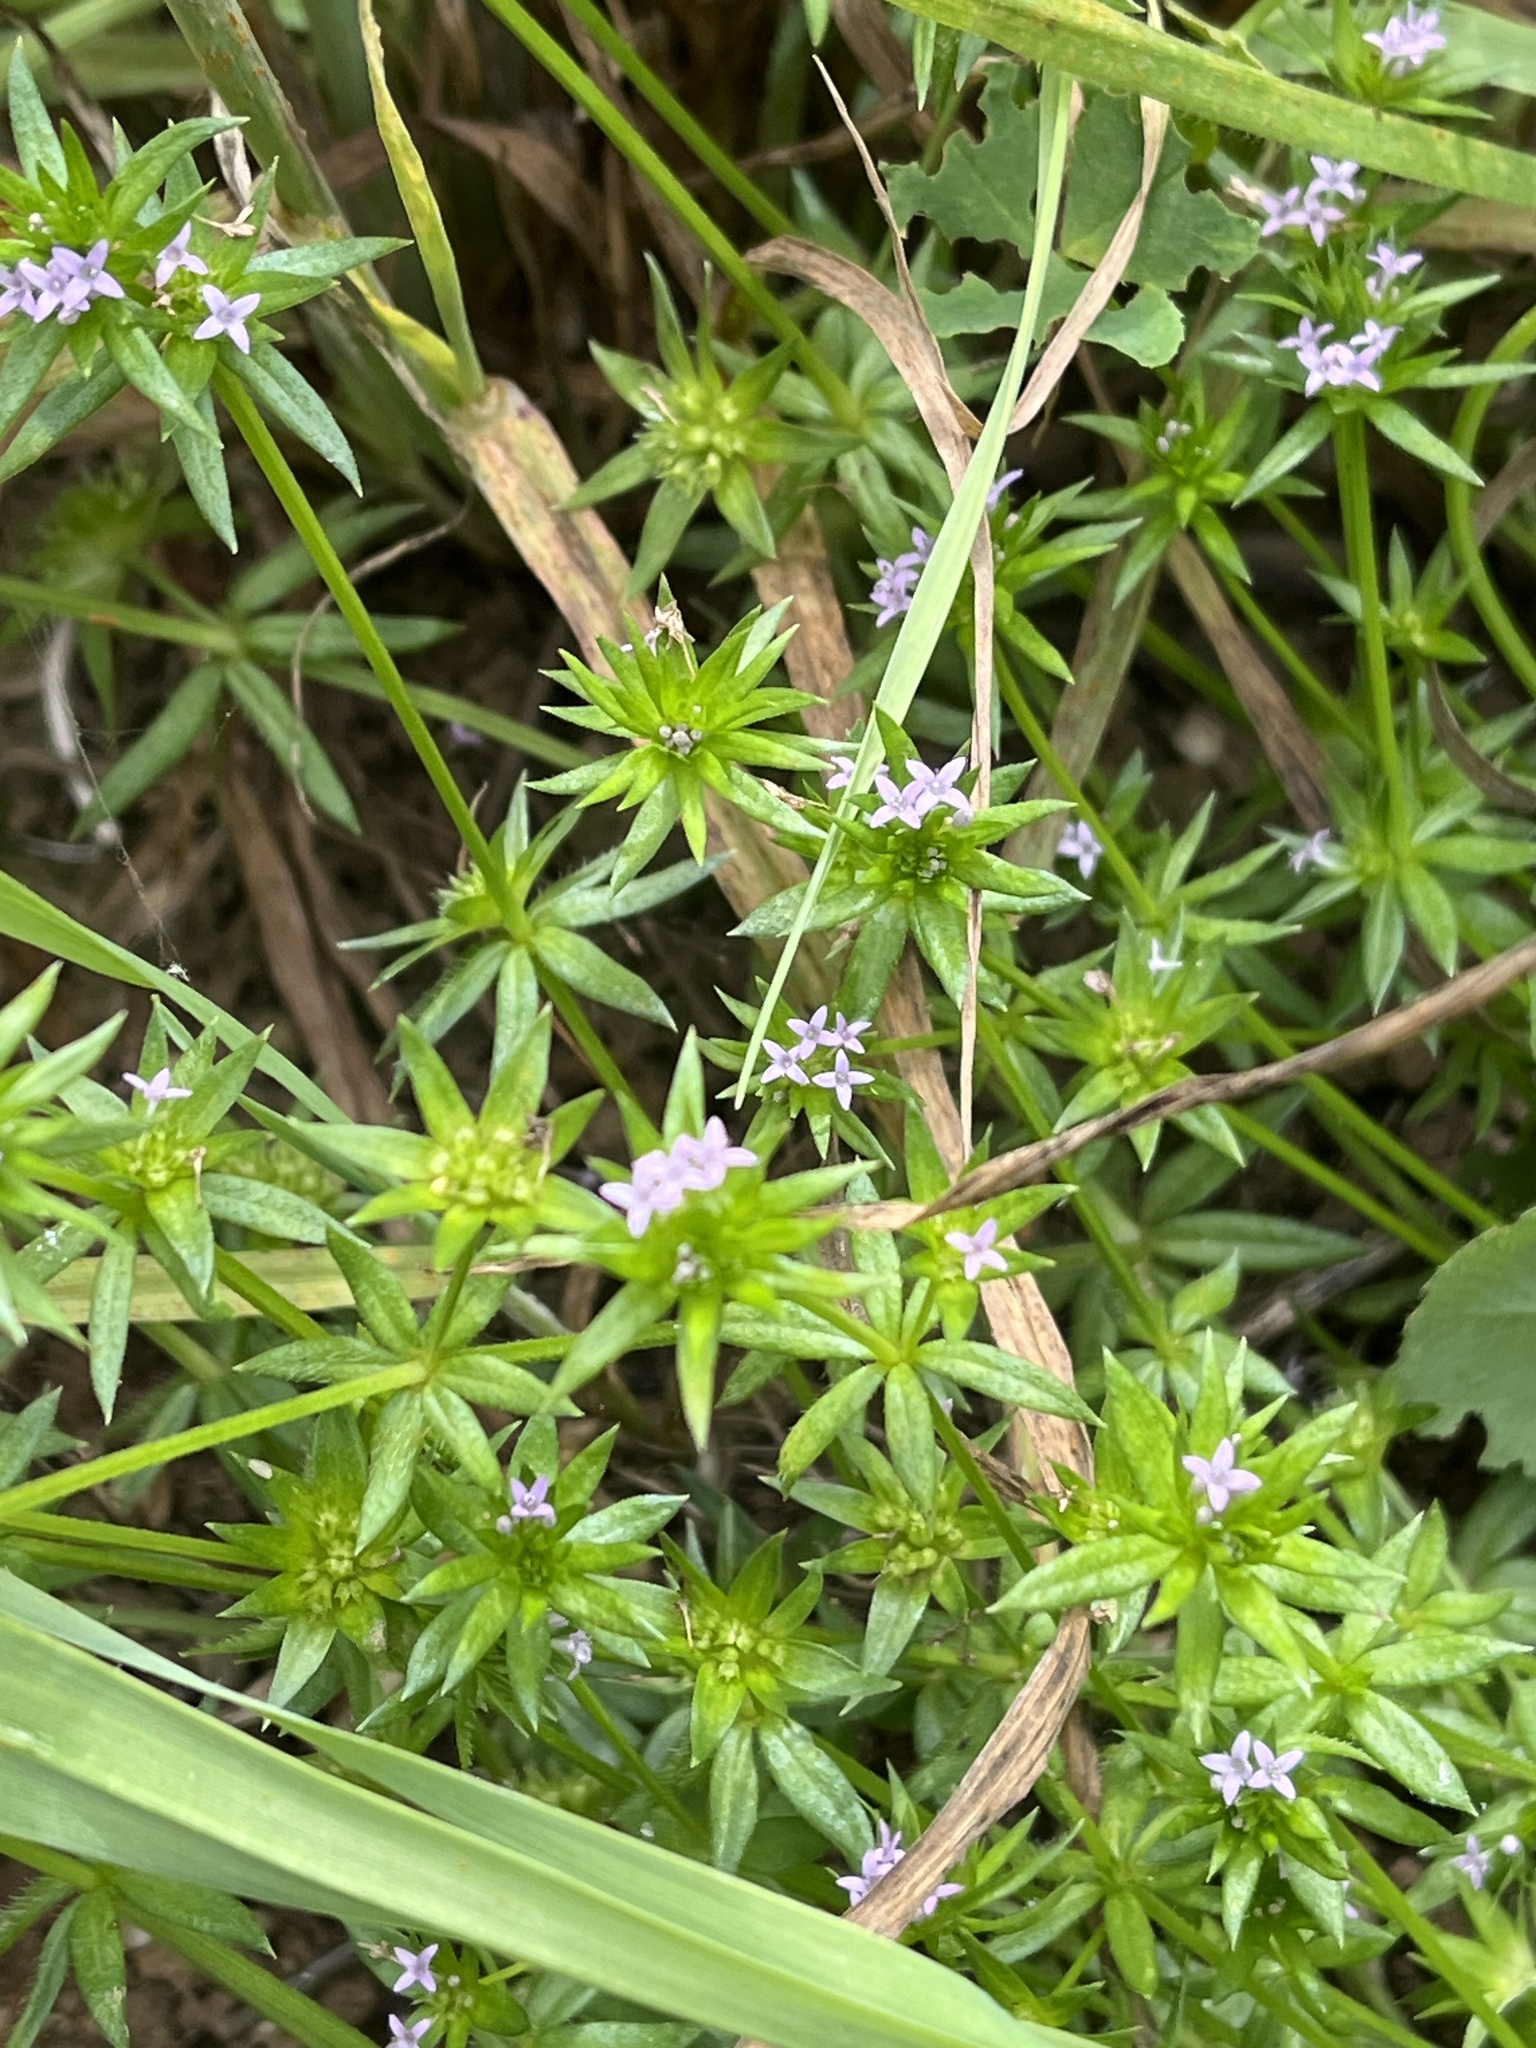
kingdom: Plantae
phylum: Tracheophyta
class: Magnoliopsida
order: Gentianales
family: Rubiaceae
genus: Sherardia
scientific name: Sherardia arvensis
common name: Field madder
